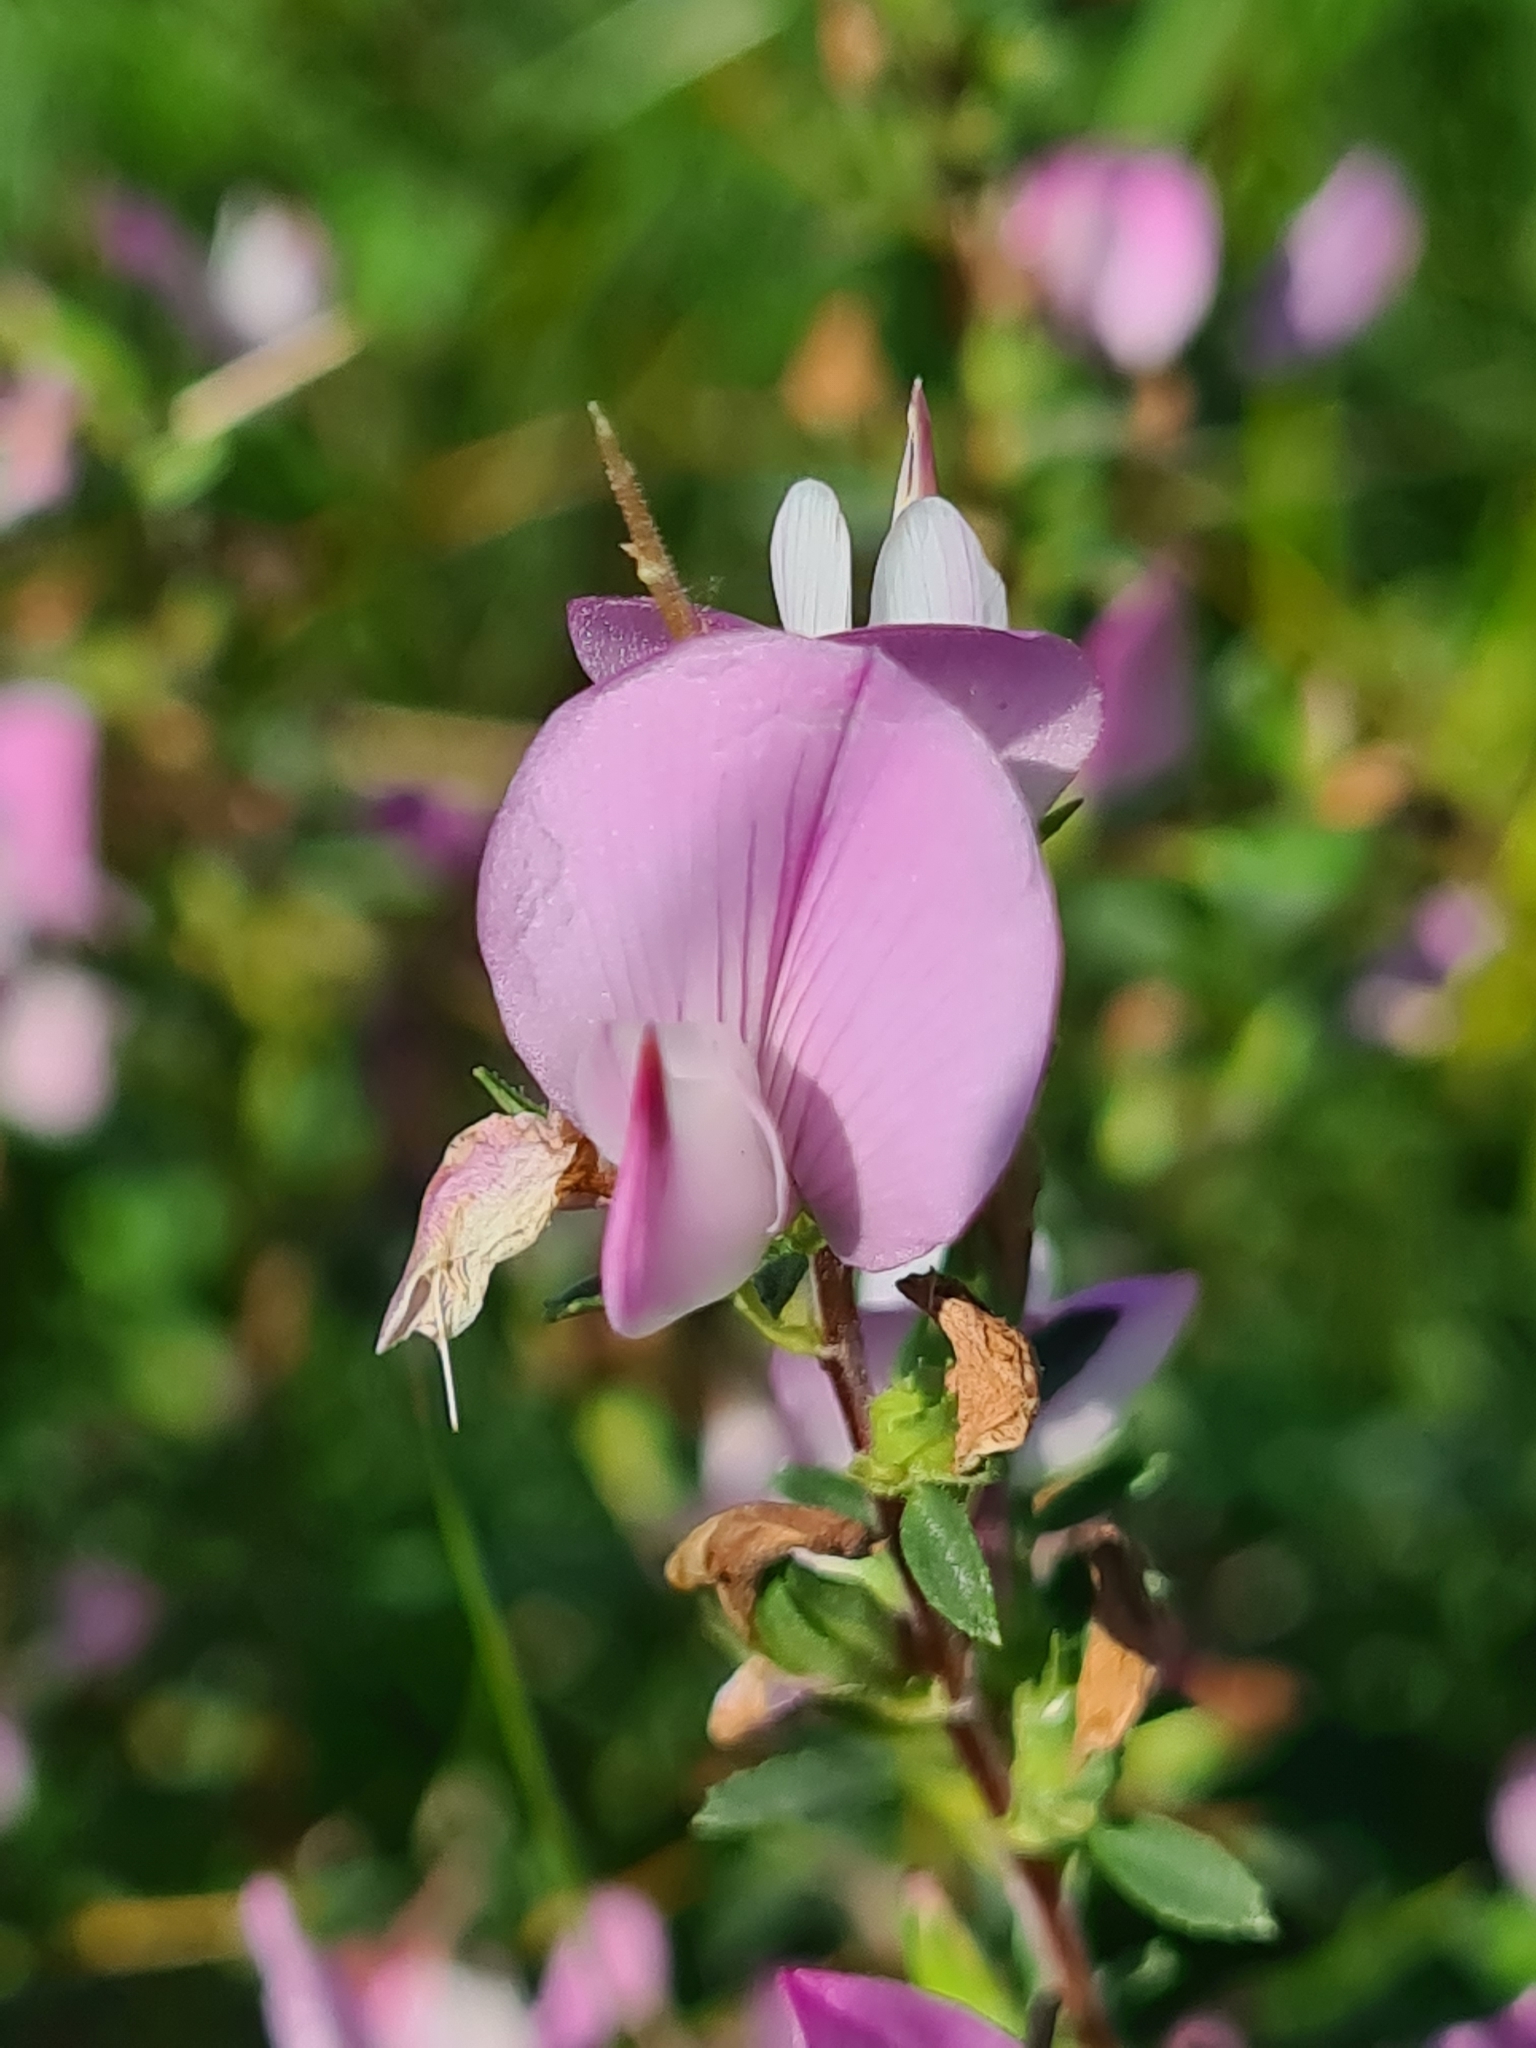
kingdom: Plantae
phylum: Tracheophyta
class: Magnoliopsida
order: Fabales
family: Fabaceae
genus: Ononis
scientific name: Ononis spinosa
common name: Spiny restharrow
